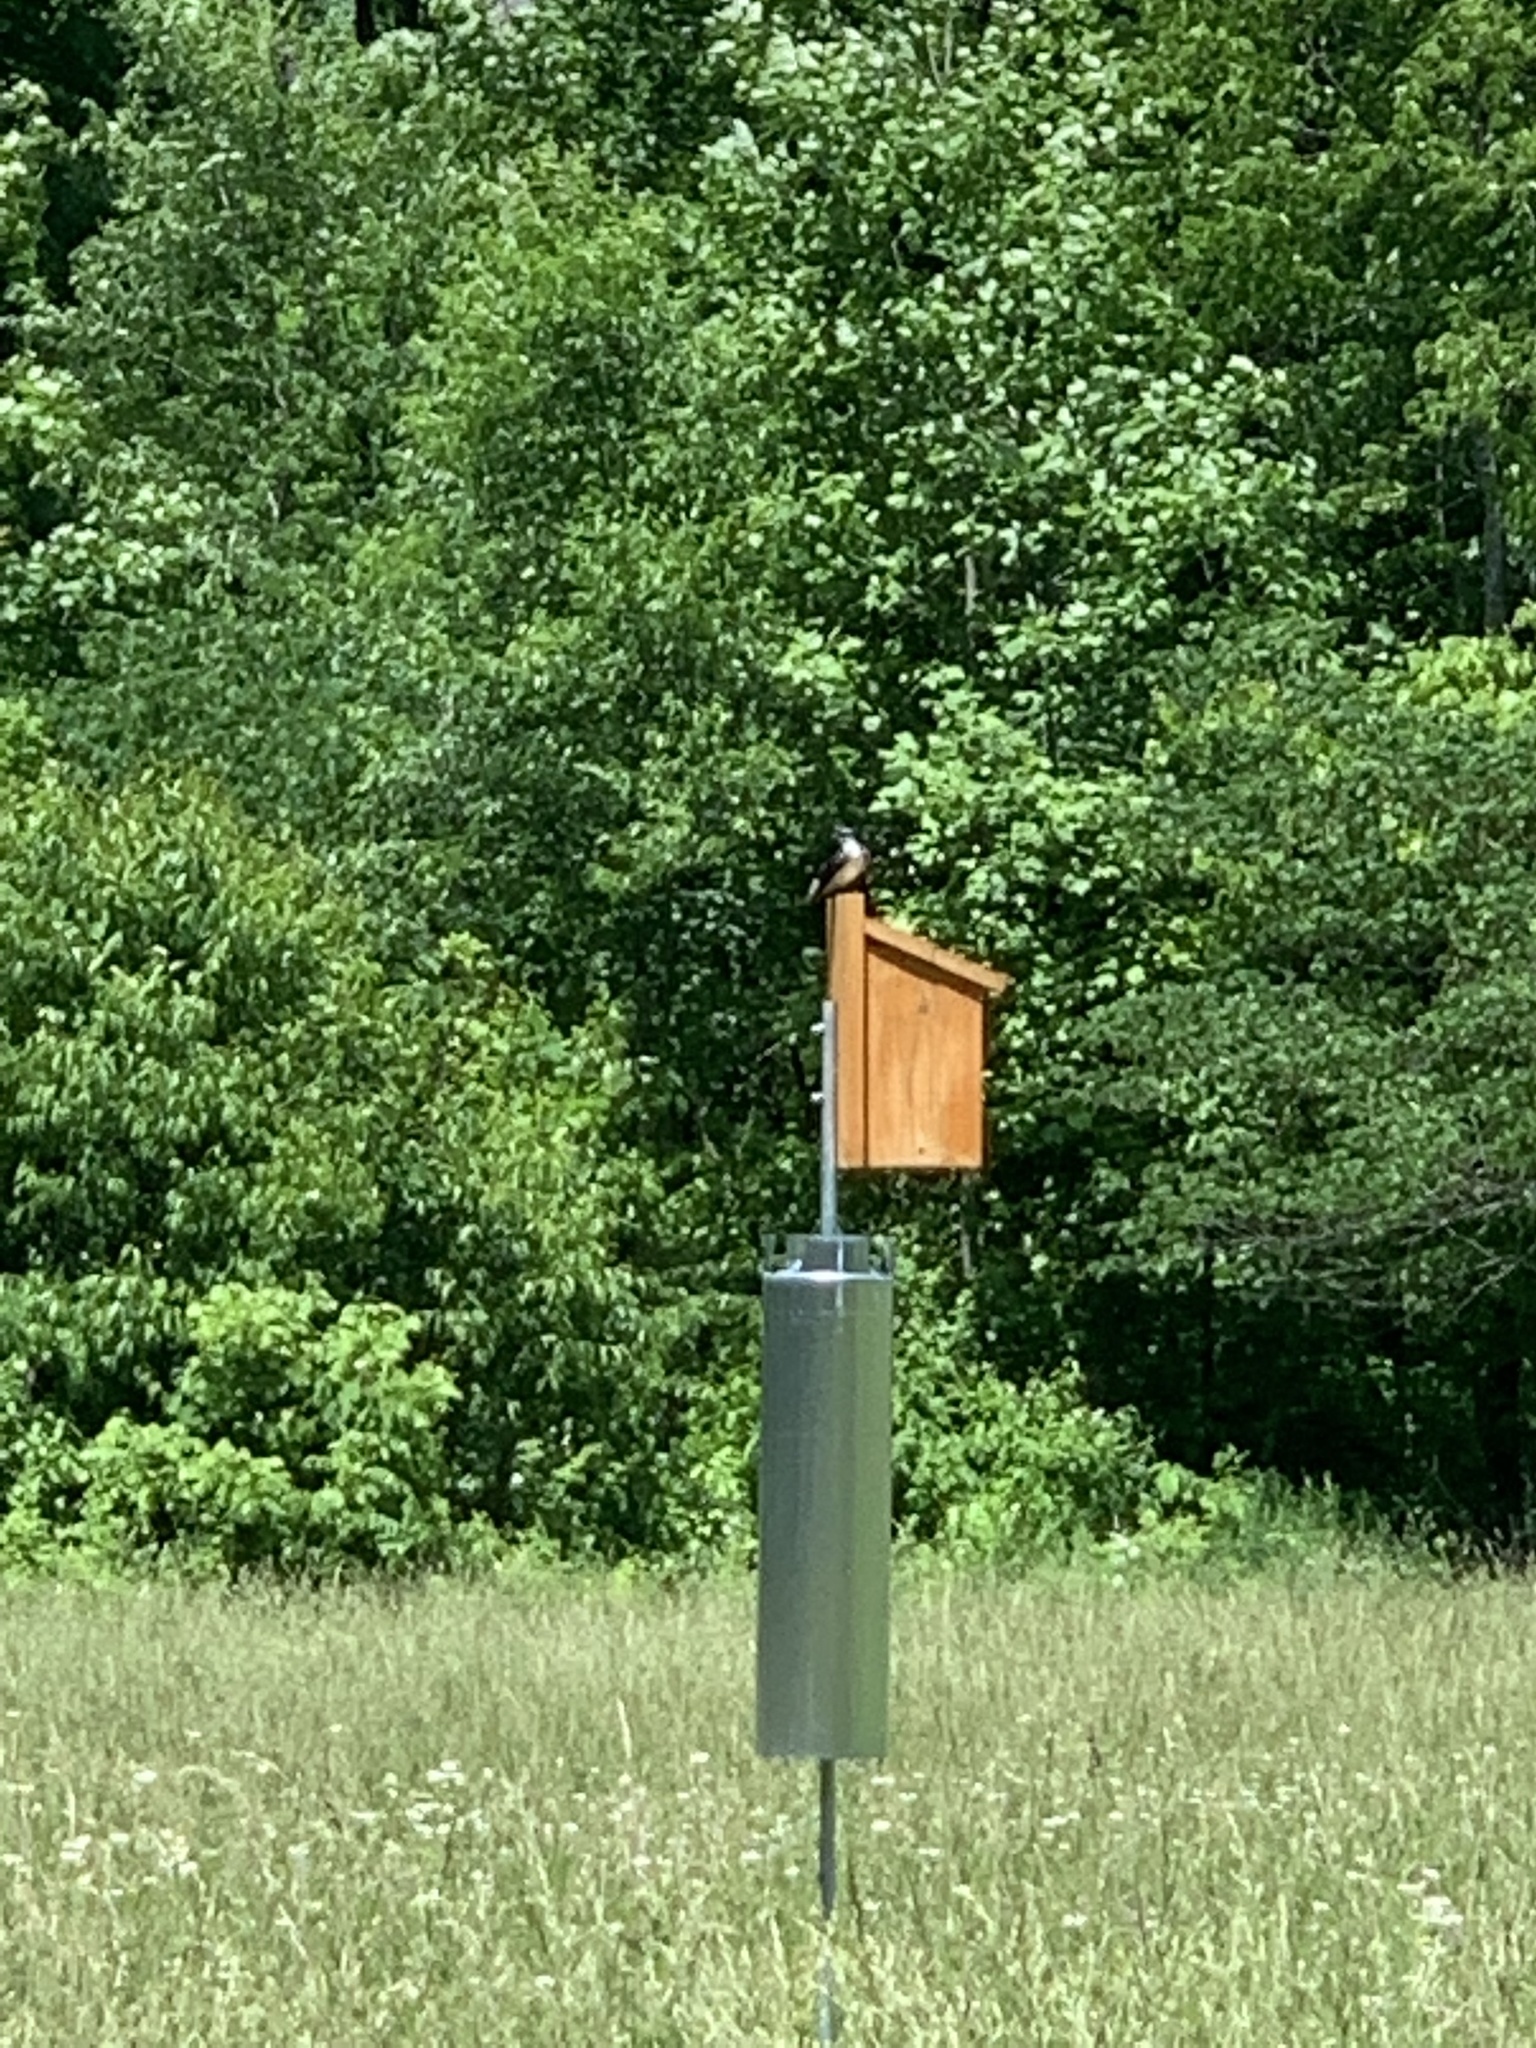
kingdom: Animalia
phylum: Chordata
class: Aves
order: Passeriformes
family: Hirundinidae
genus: Tachycineta
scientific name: Tachycineta bicolor
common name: Tree swallow
